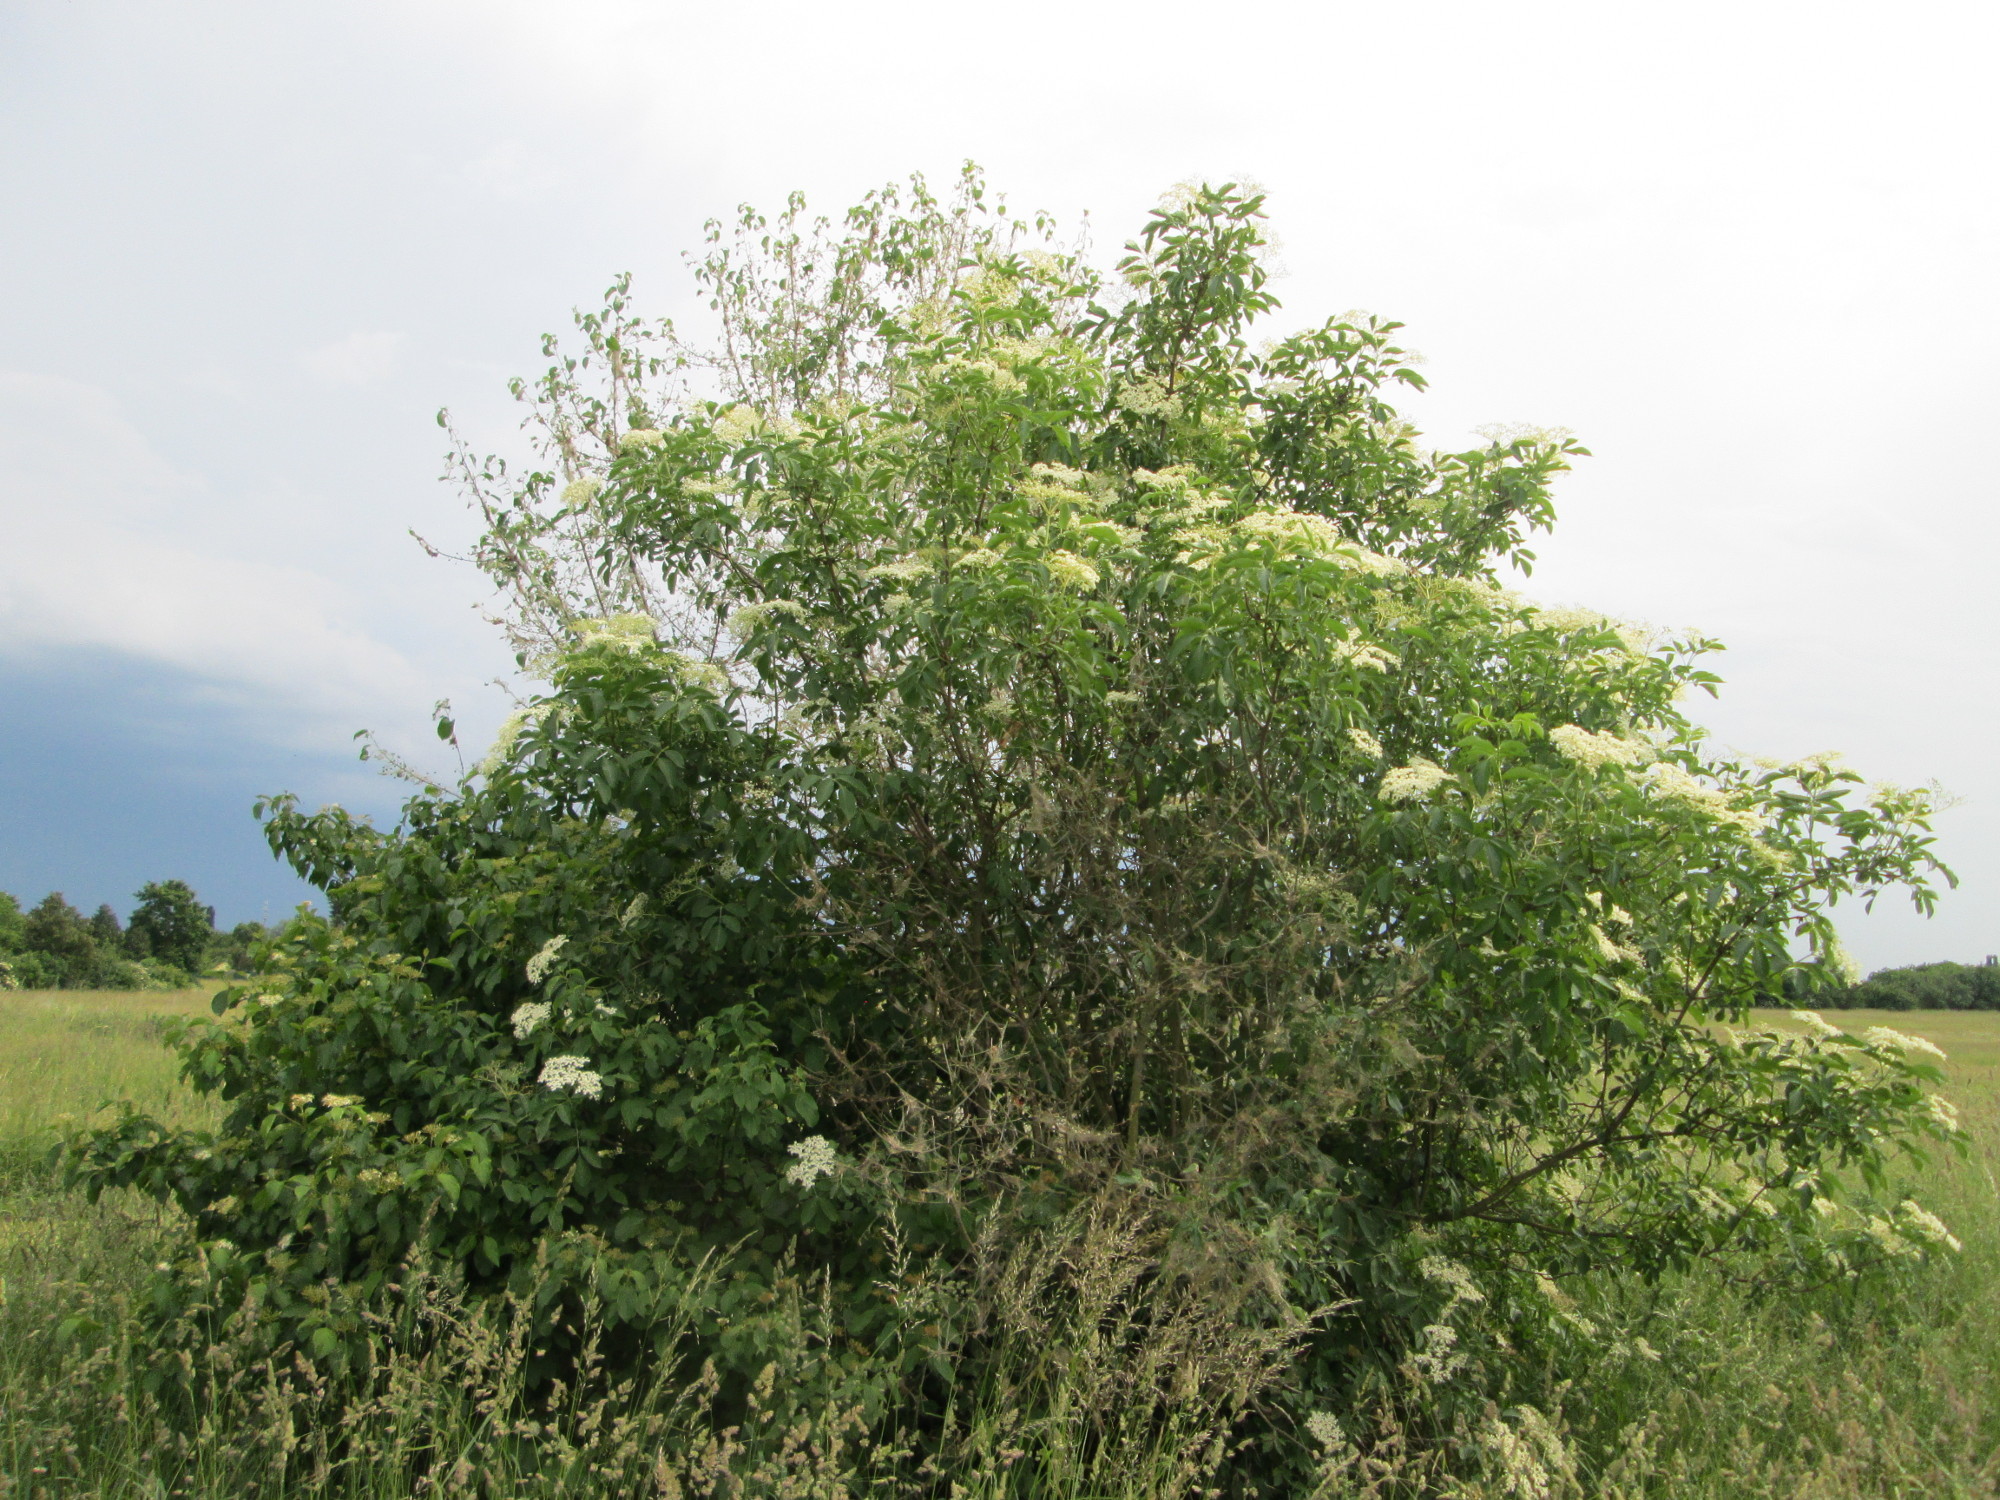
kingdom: Plantae
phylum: Tracheophyta
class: Magnoliopsida
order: Dipsacales
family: Viburnaceae
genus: Sambucus
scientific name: Sambucus nigra
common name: Elder
